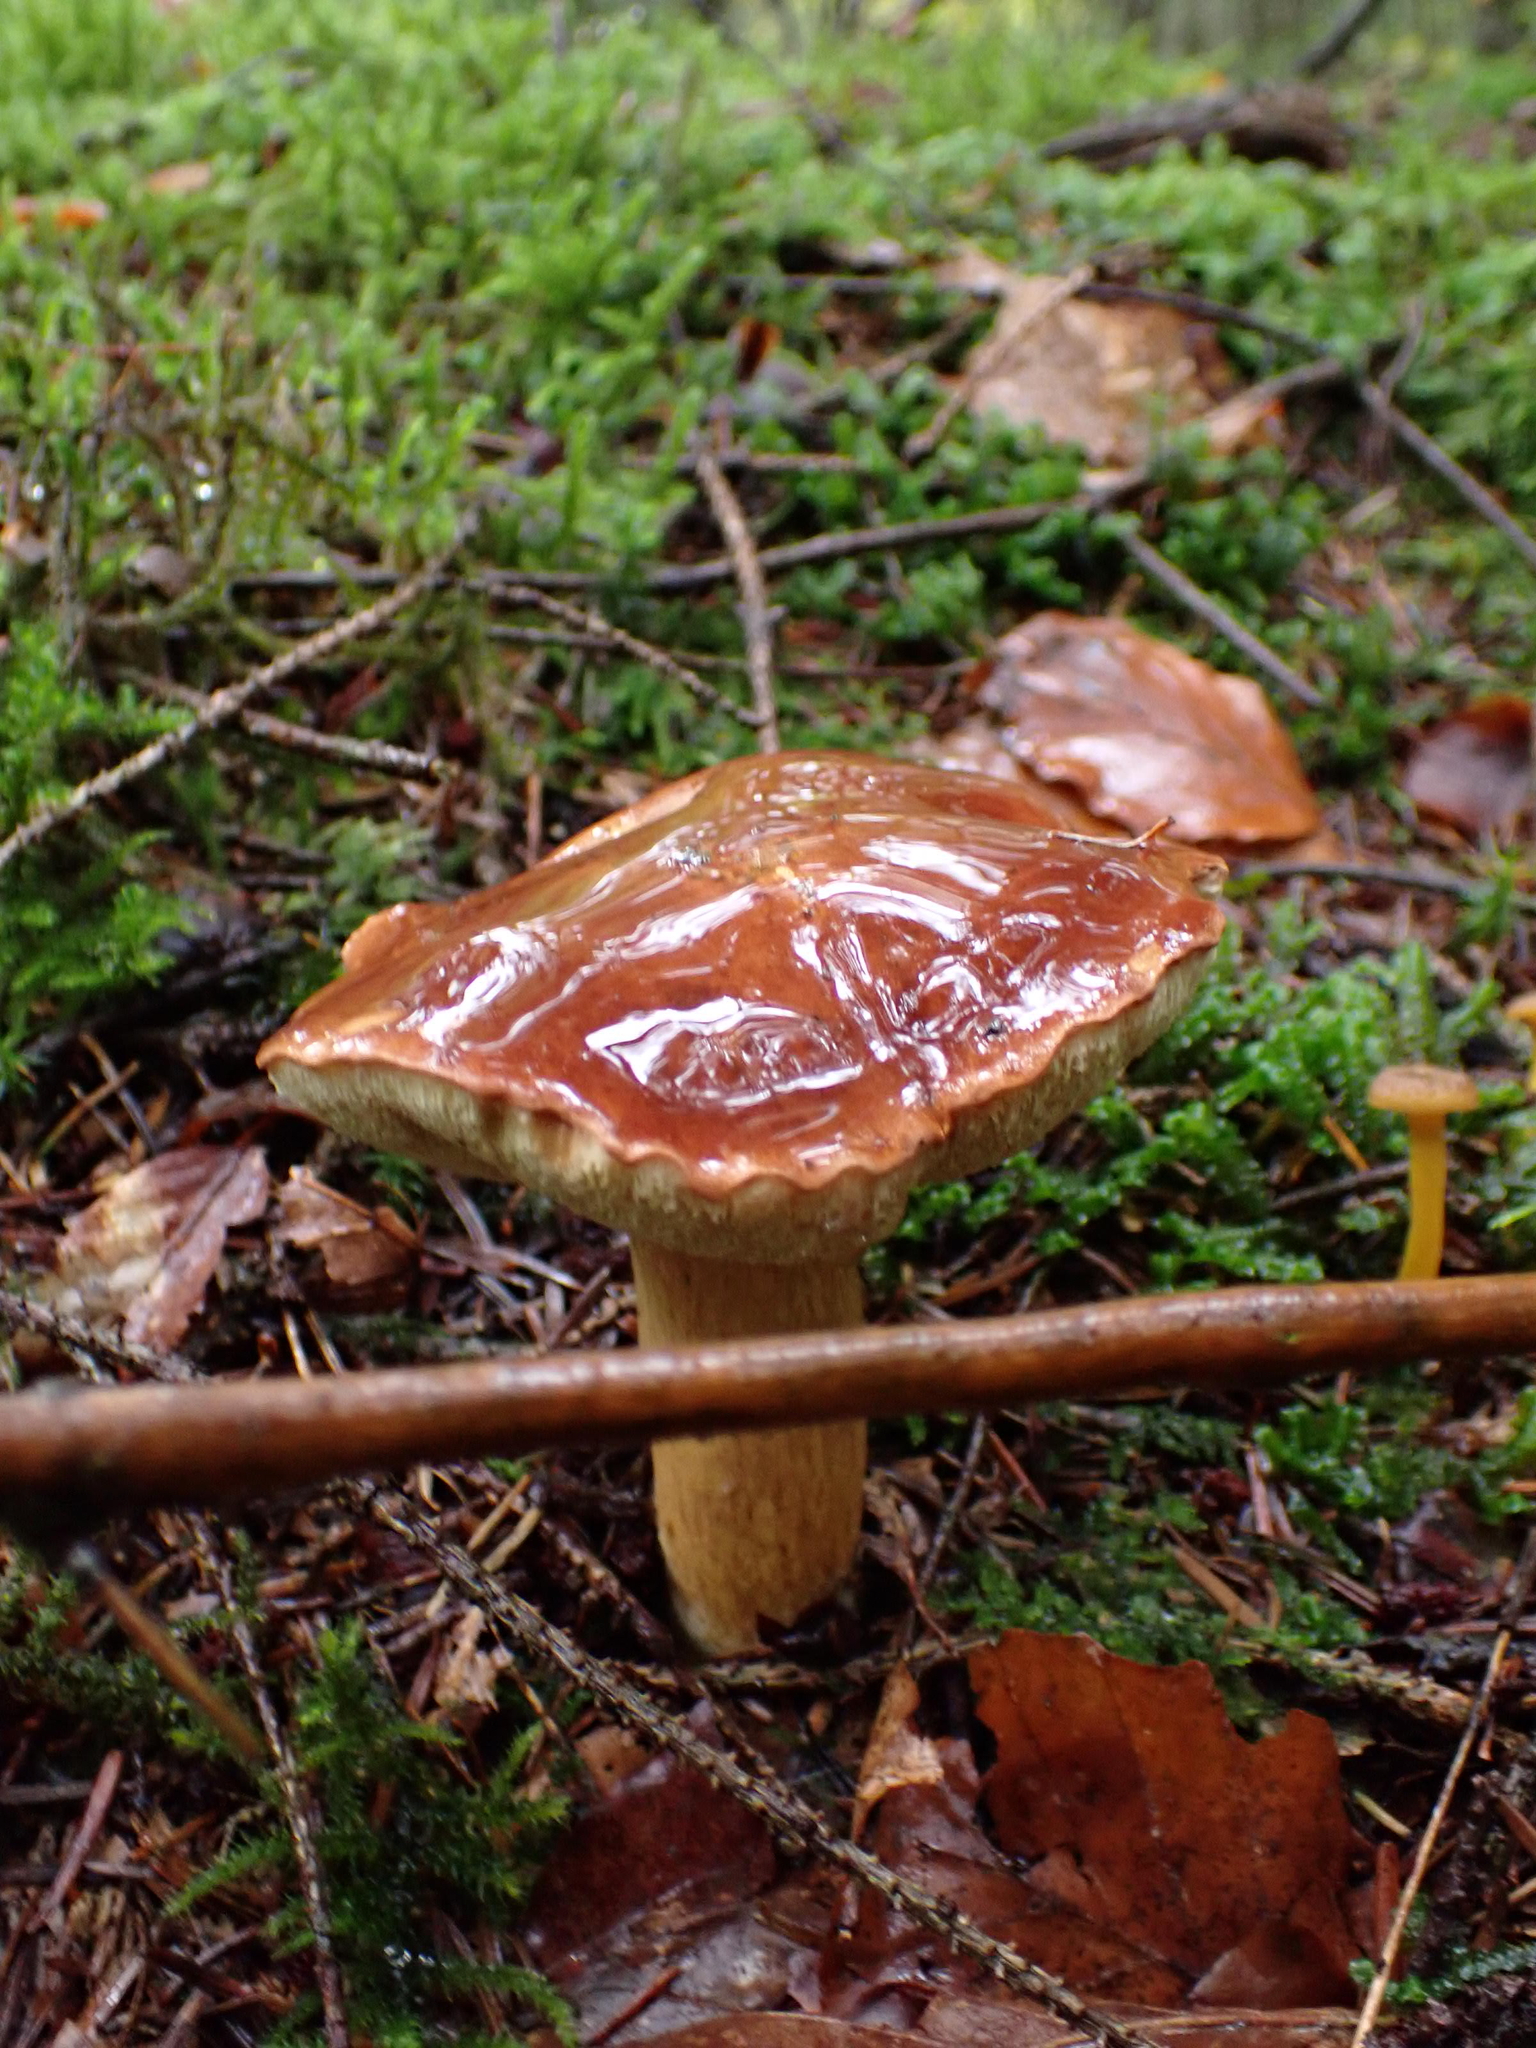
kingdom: Fungi
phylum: Basidiomycota
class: Agaricomycetes
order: Boletales
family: Boletaceae
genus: Imleria
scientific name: Imleria badia
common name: Bay bolete
